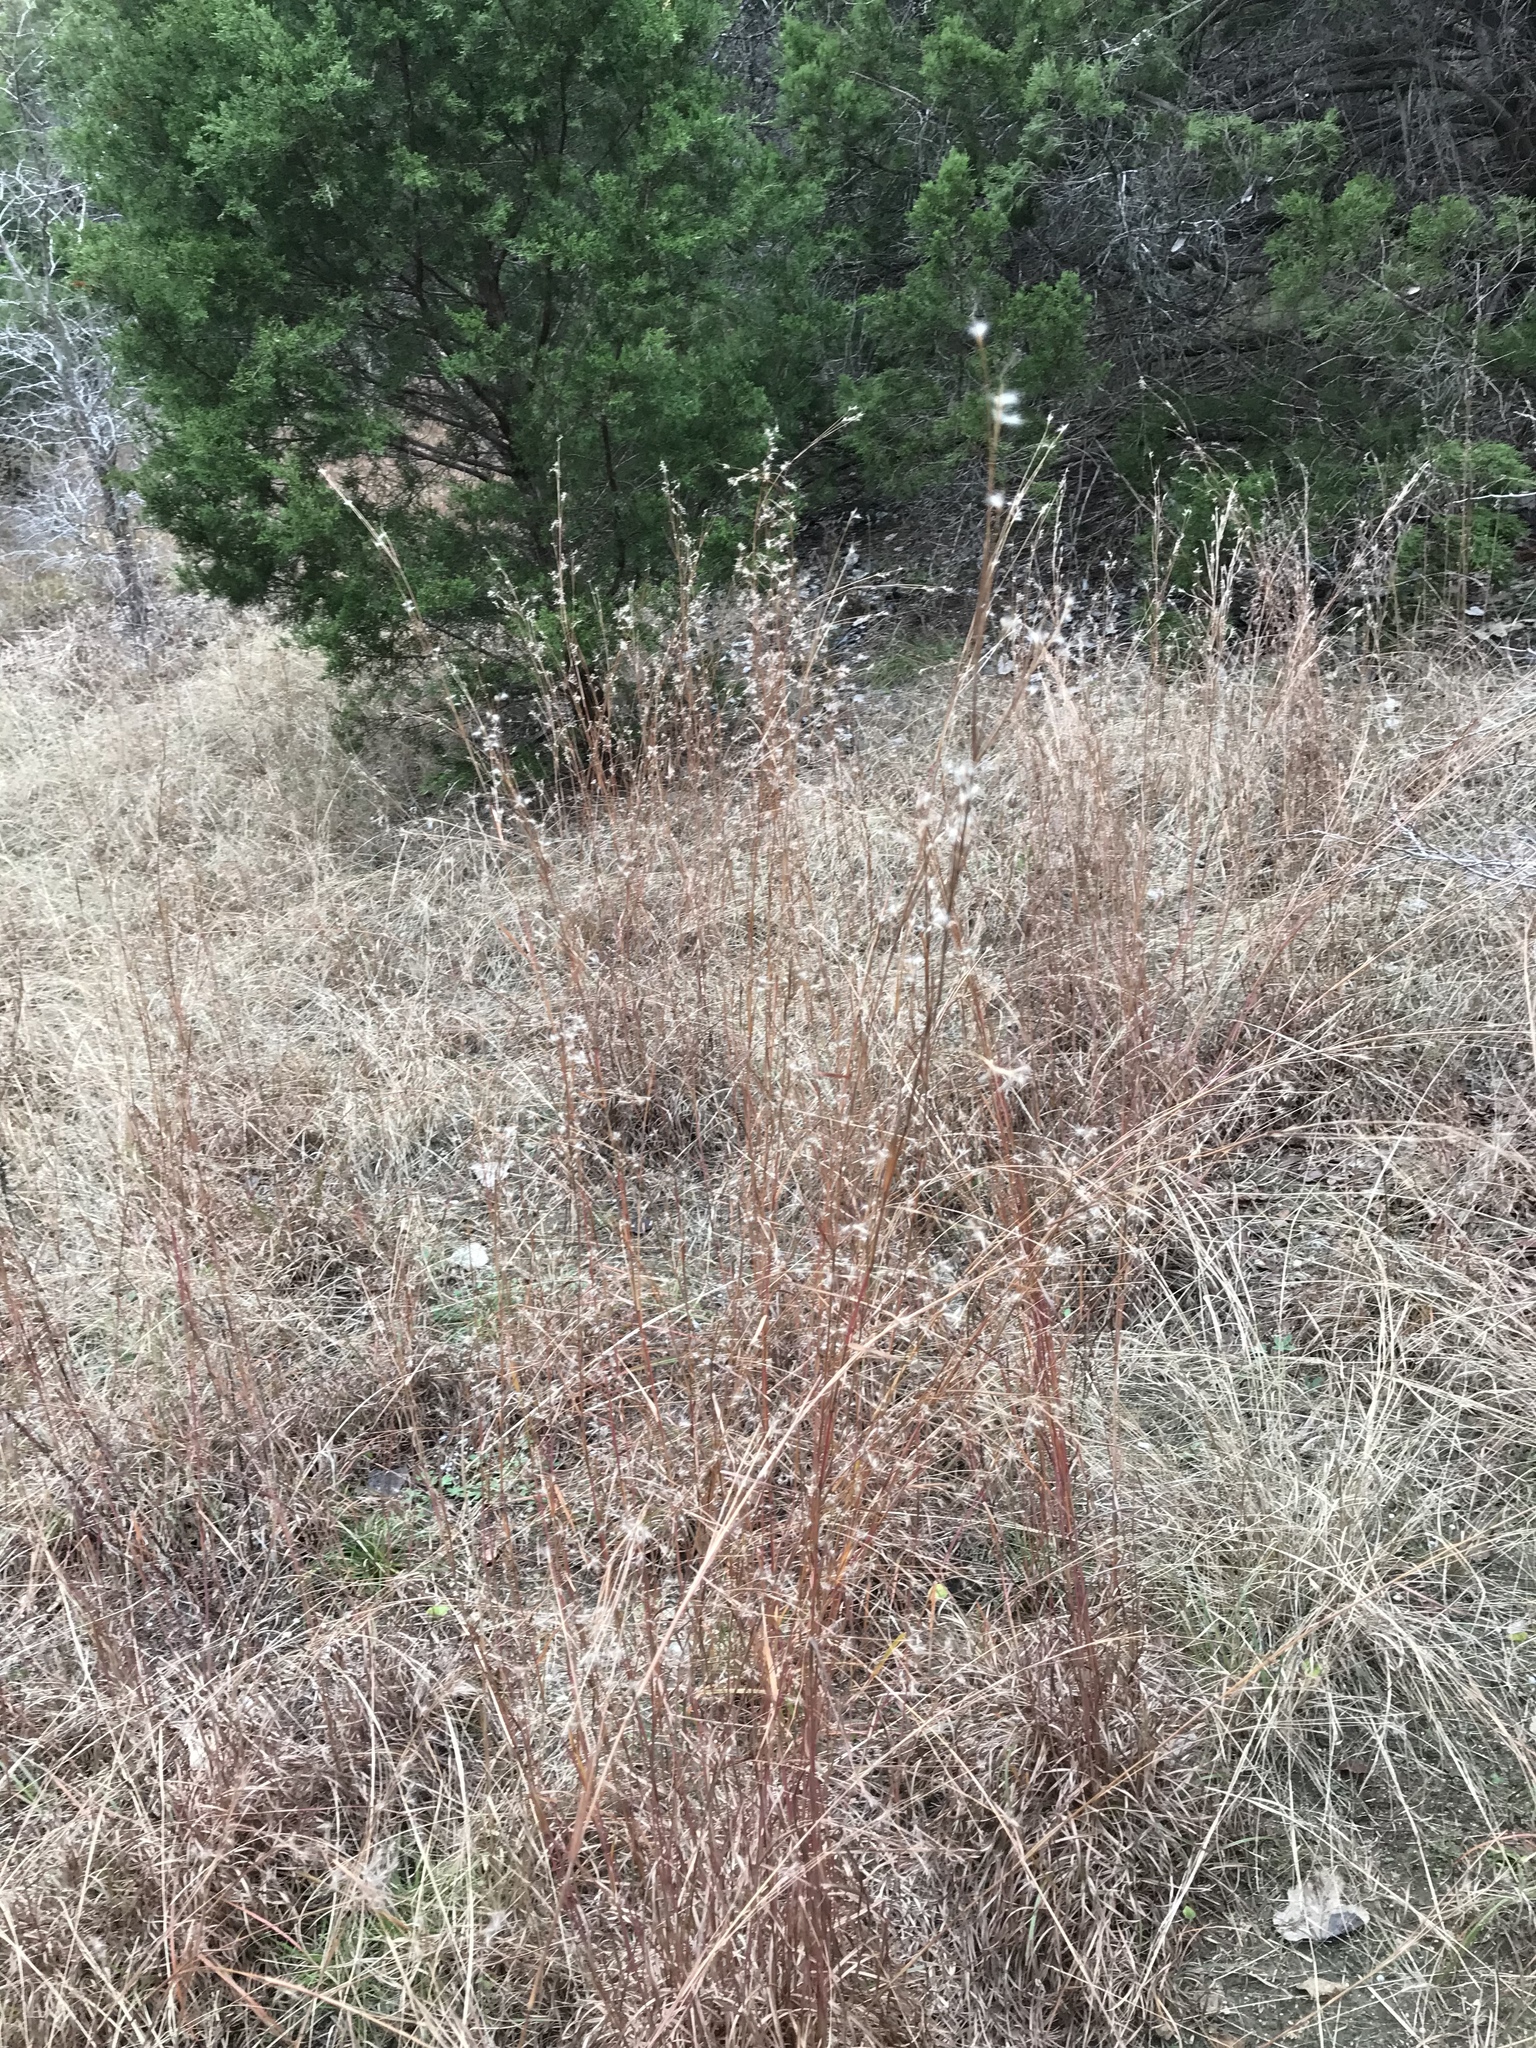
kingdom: Plantae
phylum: Tracheophyta
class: Liliopsida
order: Poales
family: Poaceae
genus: Schizachyrium
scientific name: Schizachyrium scoparium
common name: Little bluestem
